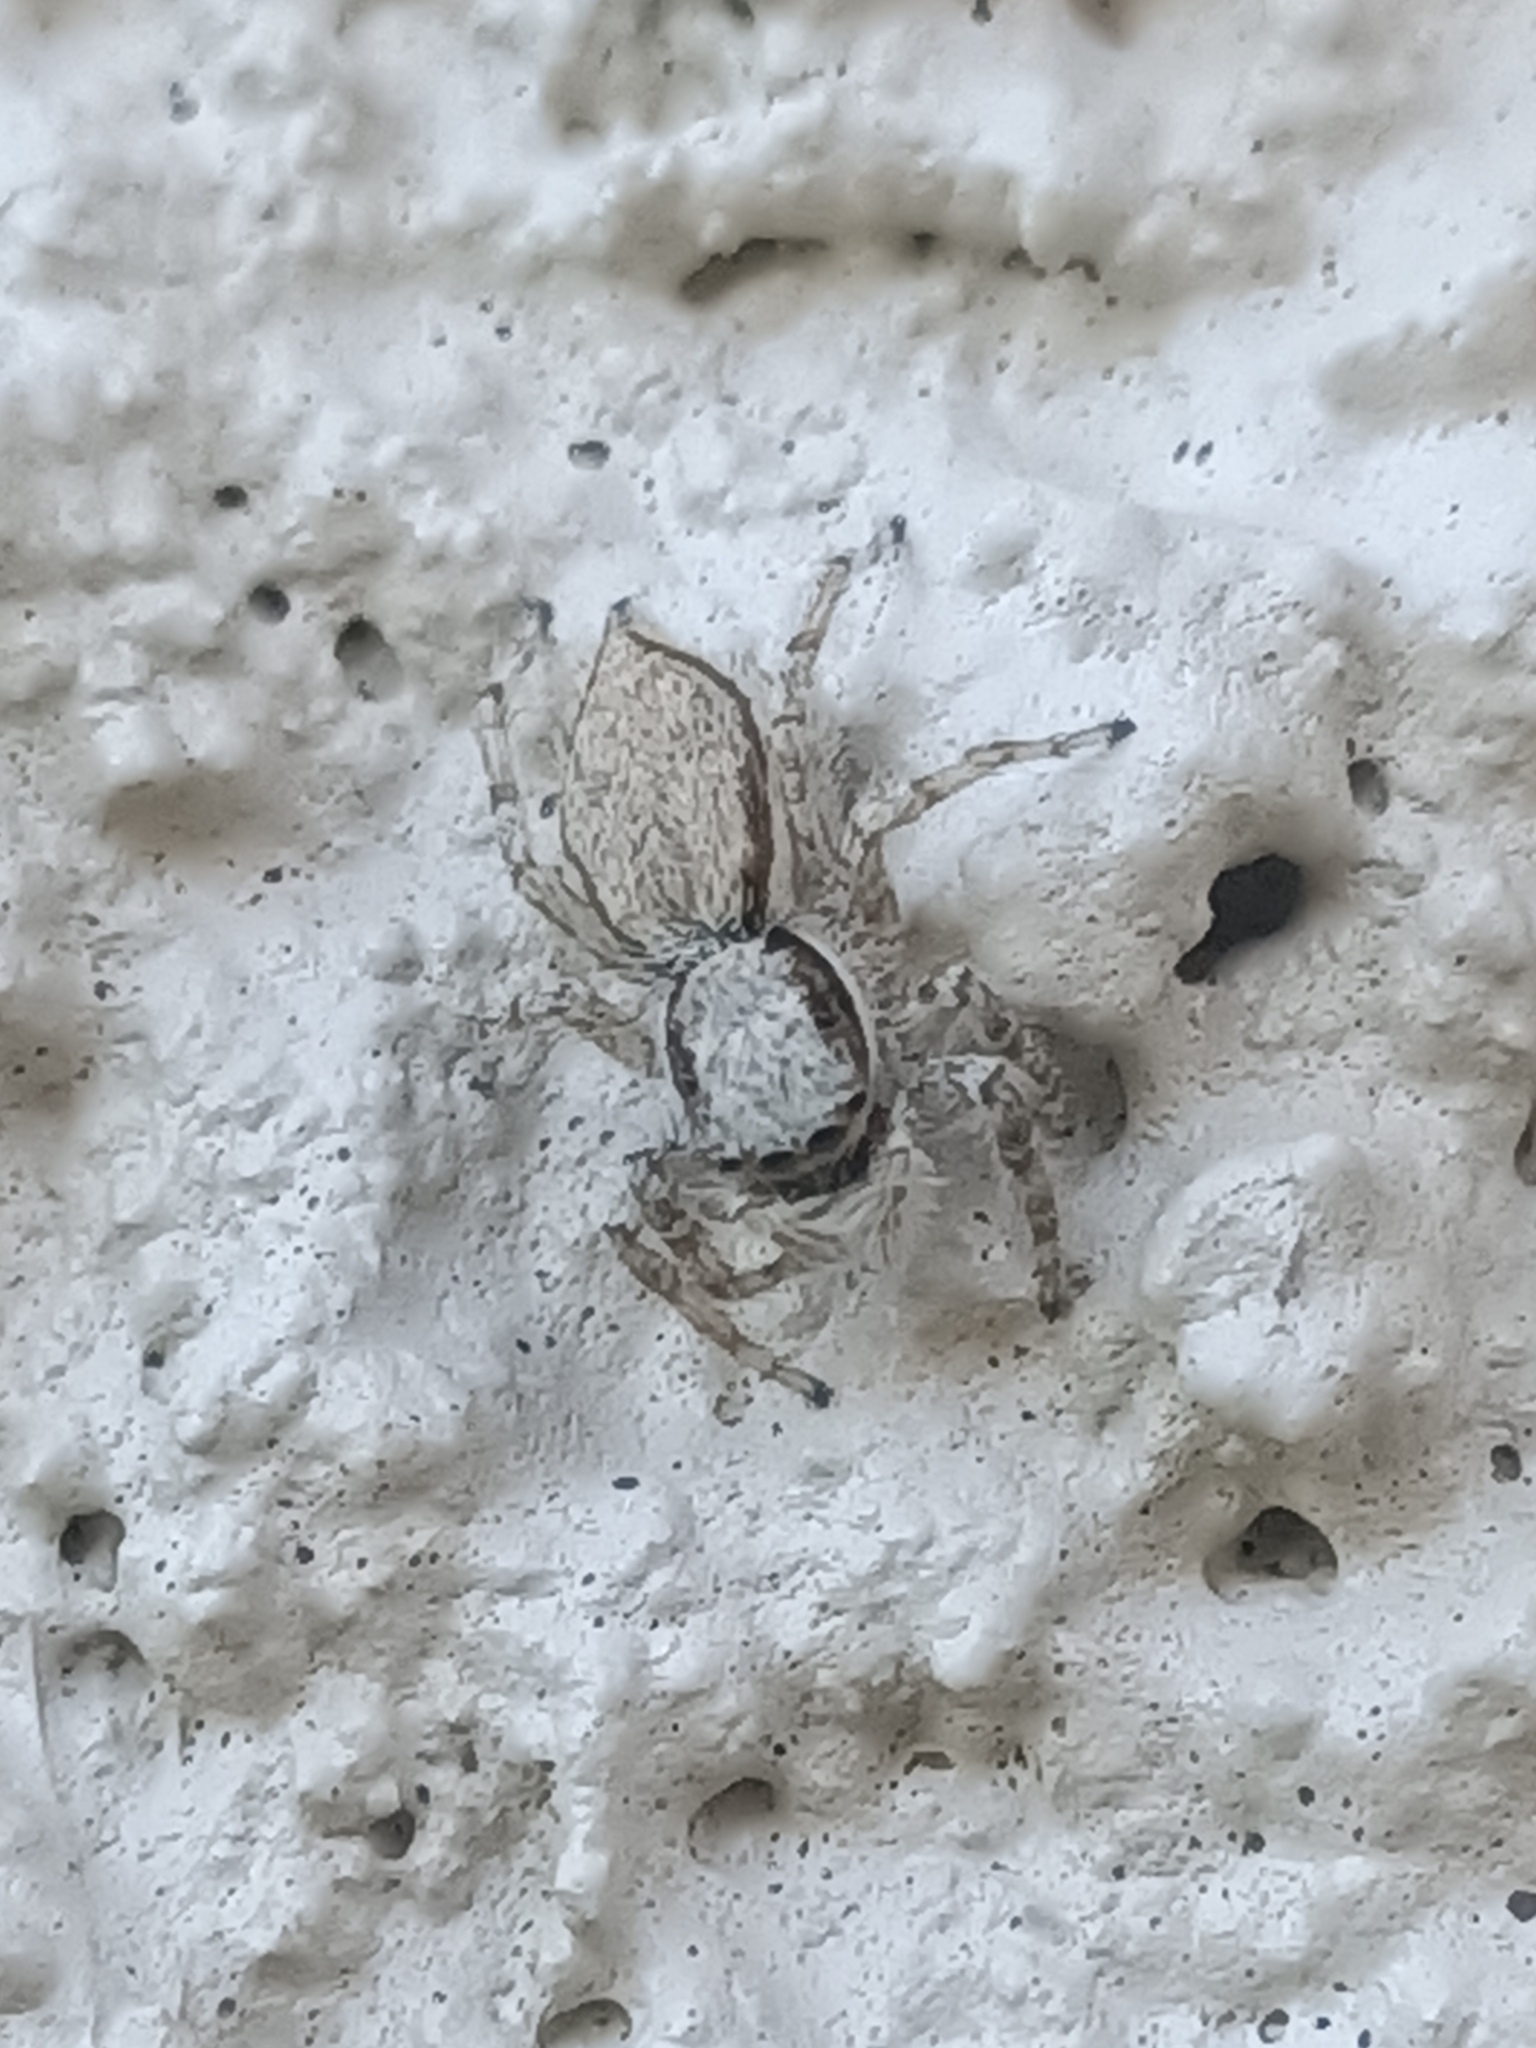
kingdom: Animalia
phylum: Arthropoda
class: Arachnida
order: Araneae
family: Salticidae
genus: Menemerus
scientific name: Menemerus bivittatus
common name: Gray wall jumper
